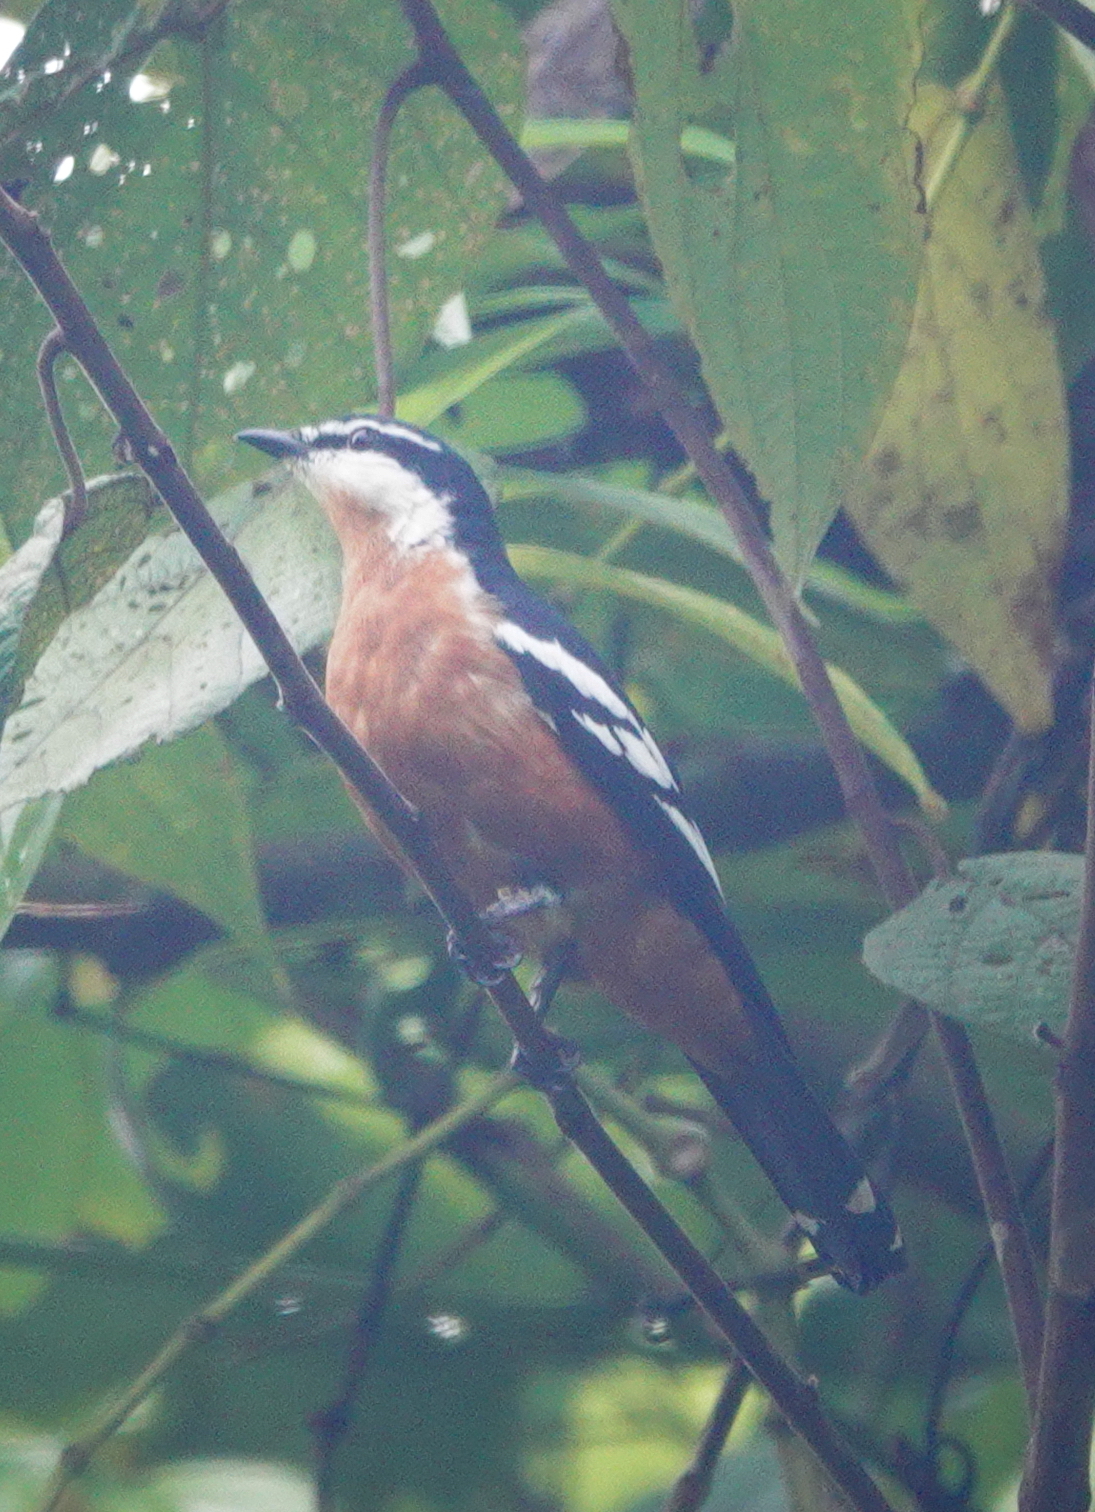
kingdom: Animalia
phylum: Chordata
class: Aves
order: Passeriformes
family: Campephagidae
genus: Lalage
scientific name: Lalage aurea
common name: Rufous-bellied triller
